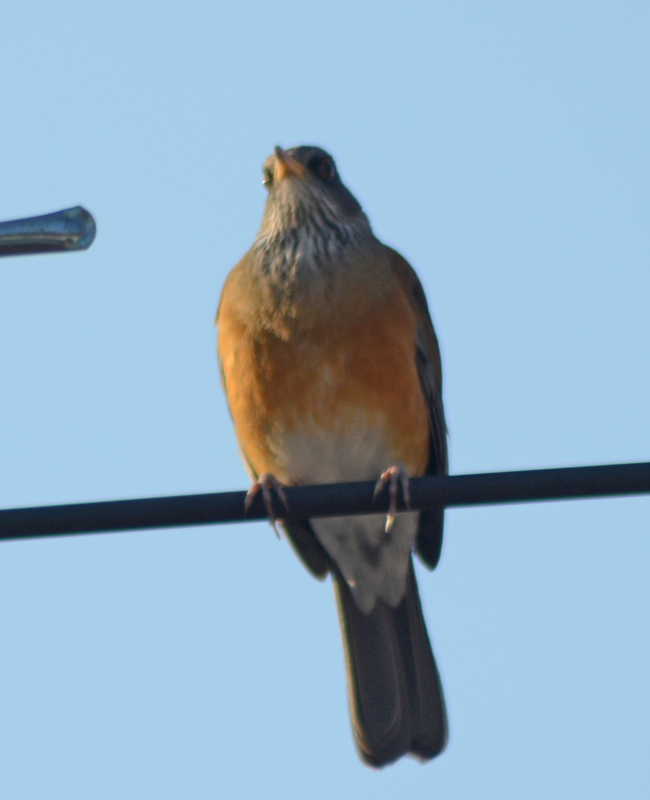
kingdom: Animalia
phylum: Chordata
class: Aves
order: Passeriformes
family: Turdidae
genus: Turdus
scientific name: Turdus rufopalliatus
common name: Rufous-backed robin
